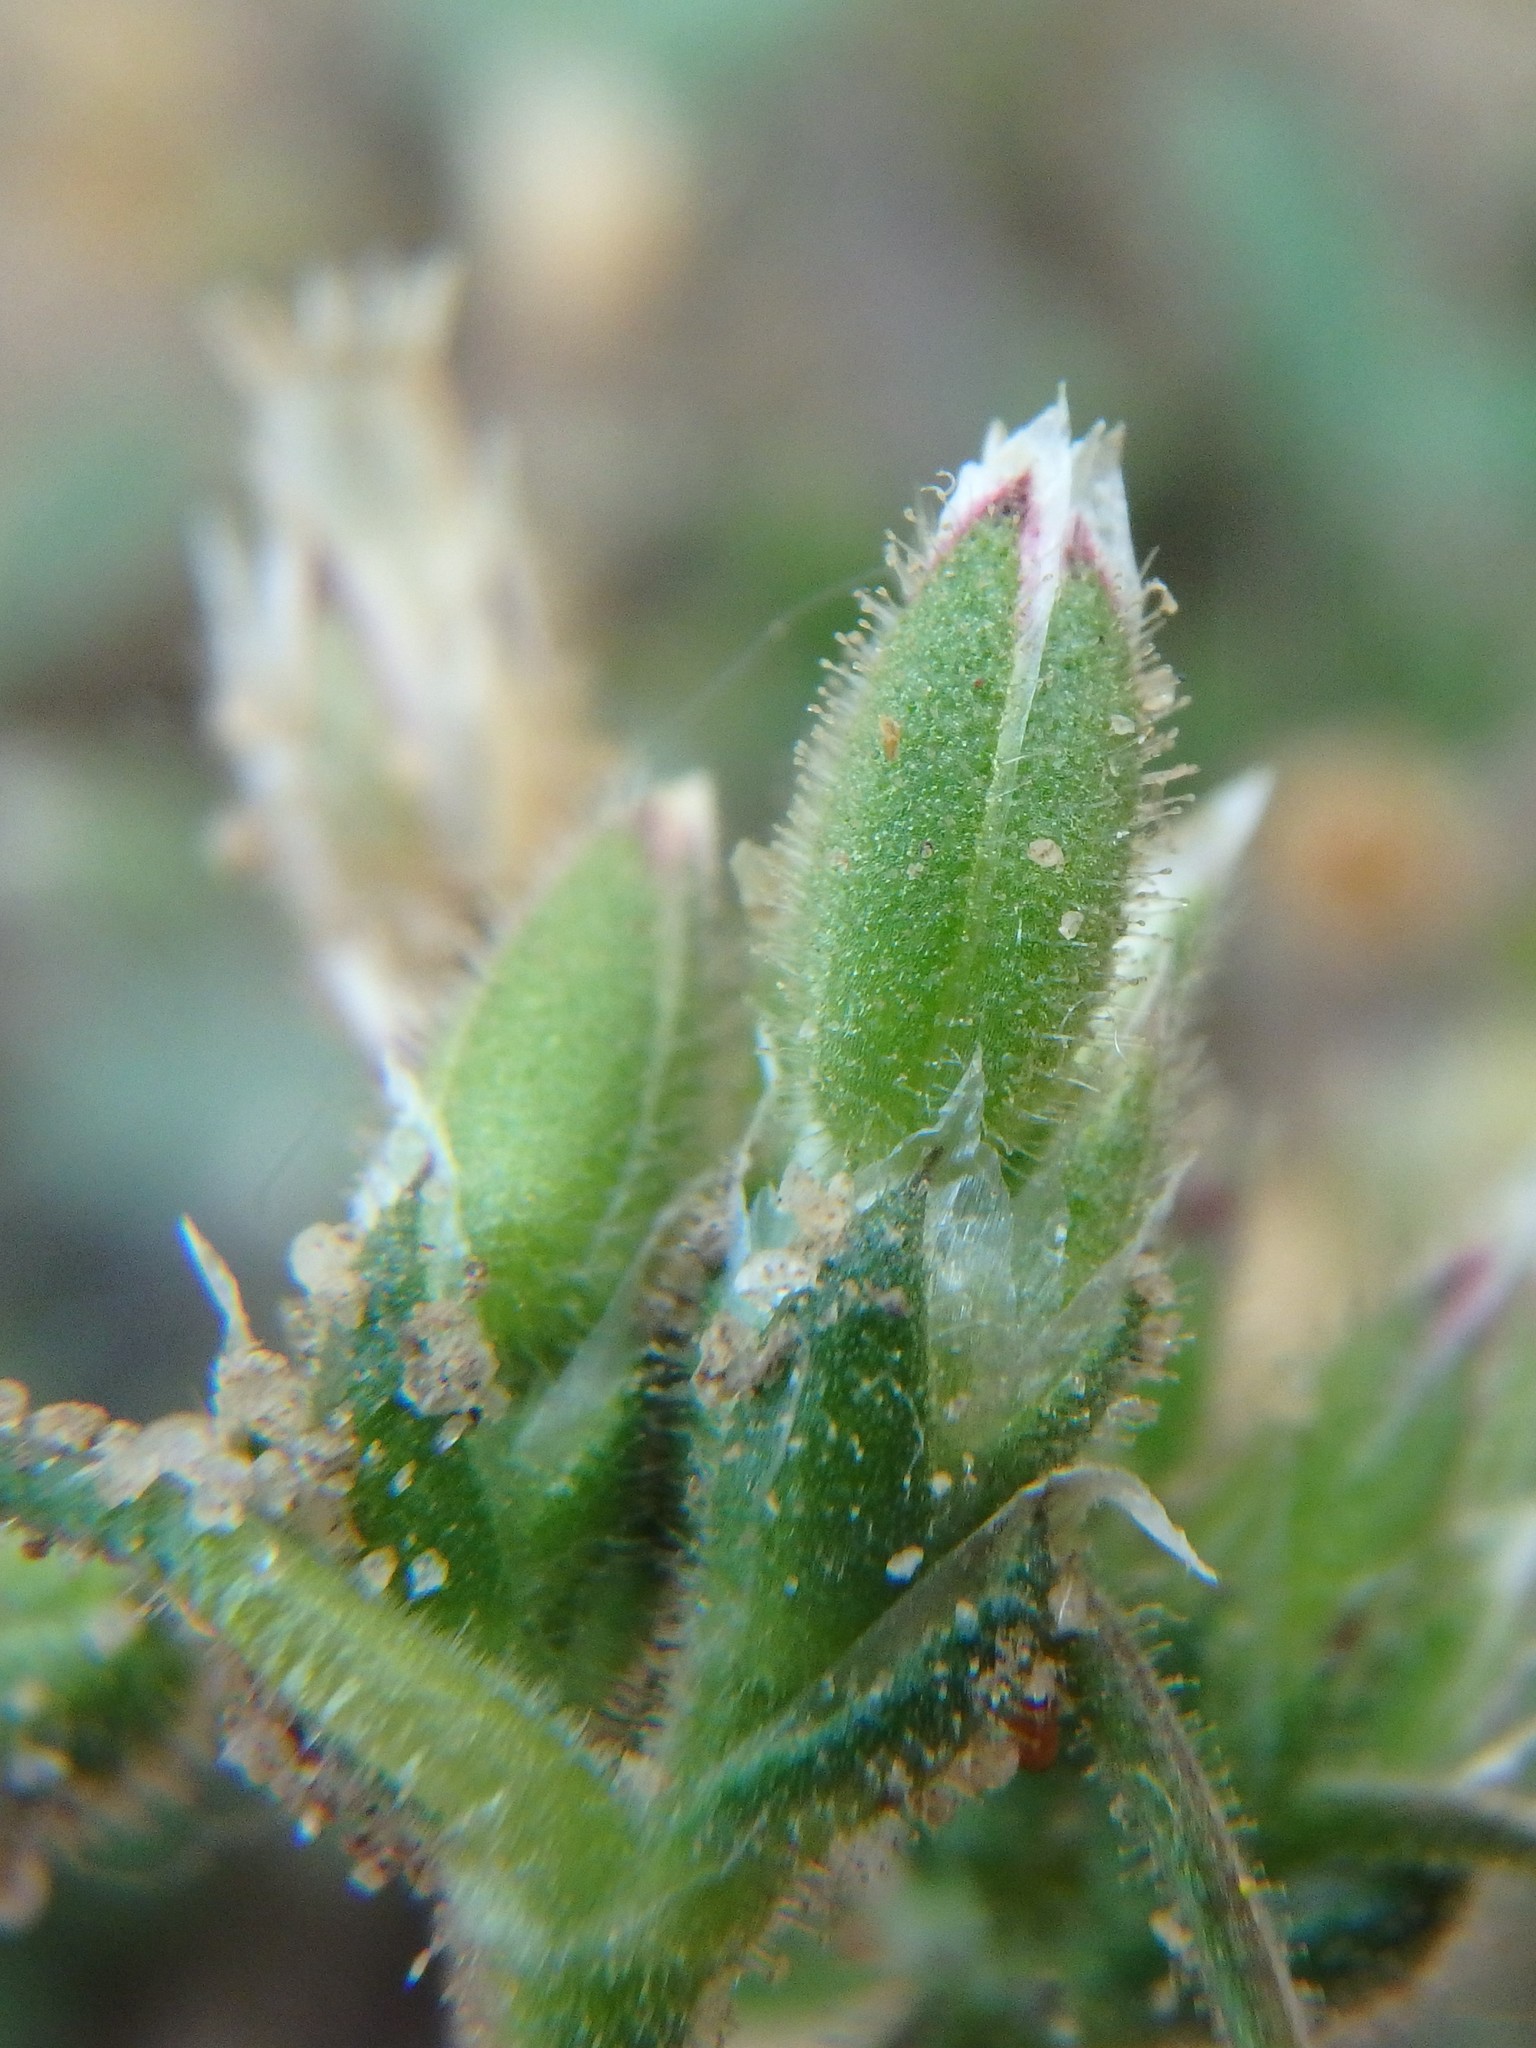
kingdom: Plantae
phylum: Tracheophyta
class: Magnoliopsida
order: Caryophyllales
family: Caryophyllaceae
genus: Cerastium
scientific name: Cerastium semidecandrum
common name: Little mouse-ear
